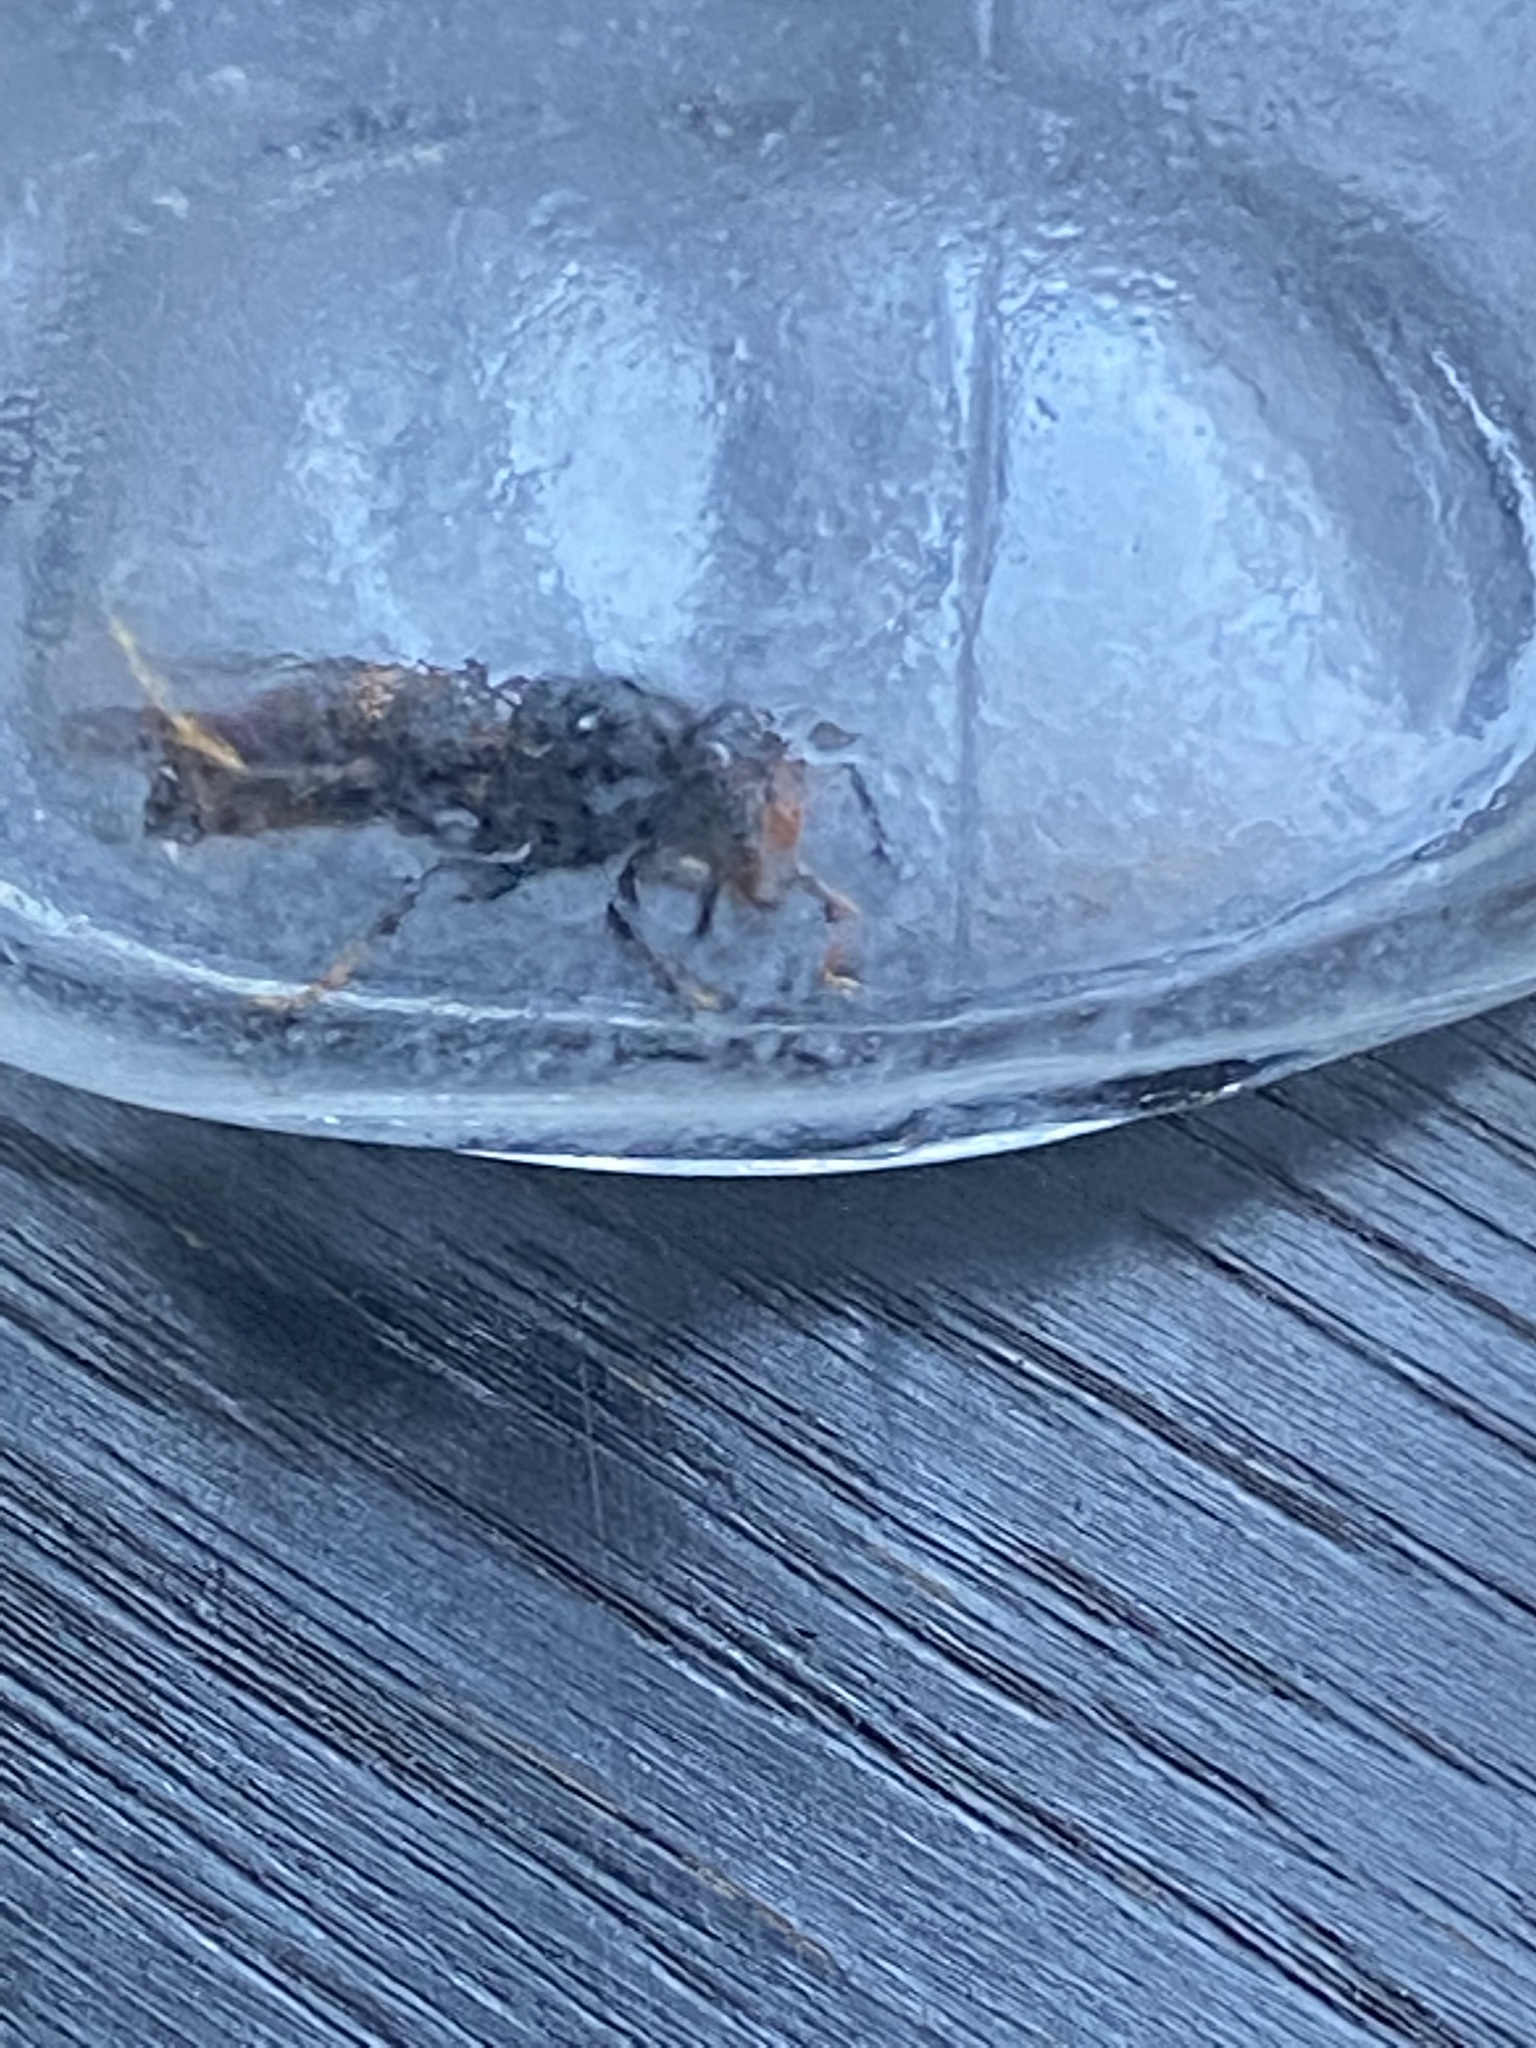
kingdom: Animalia
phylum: Arthropoda
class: Insecta
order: Hymenoptera
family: Vespidae
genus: Vespa
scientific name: Vespa velutina
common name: Asian hornet
